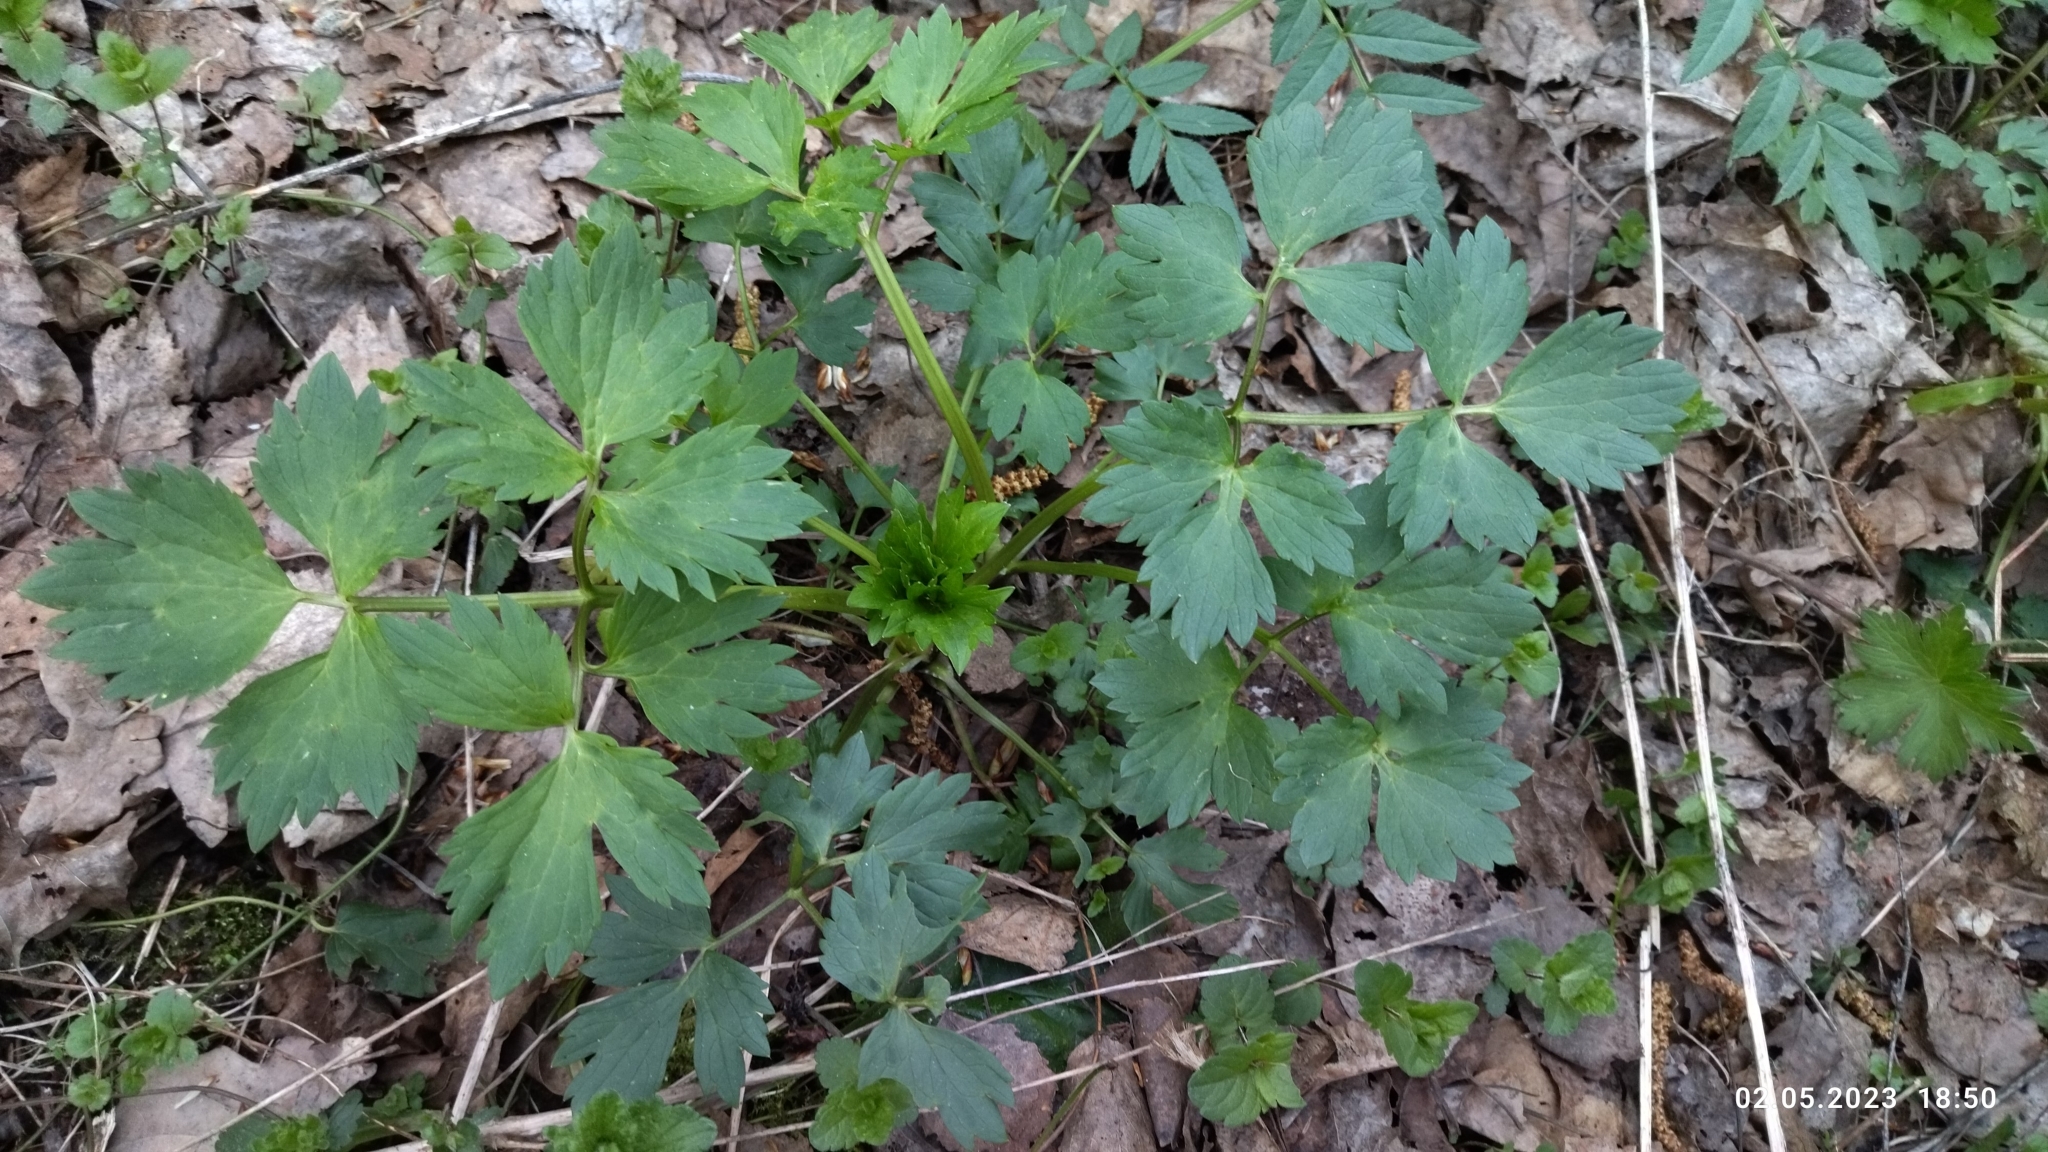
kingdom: Plantae
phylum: Tracheophyta
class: Magnoliopsida
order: Ranunculales
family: Ranunculaceae
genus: Ranunculus
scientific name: Ranunculus repens
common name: Creeping buttercup
